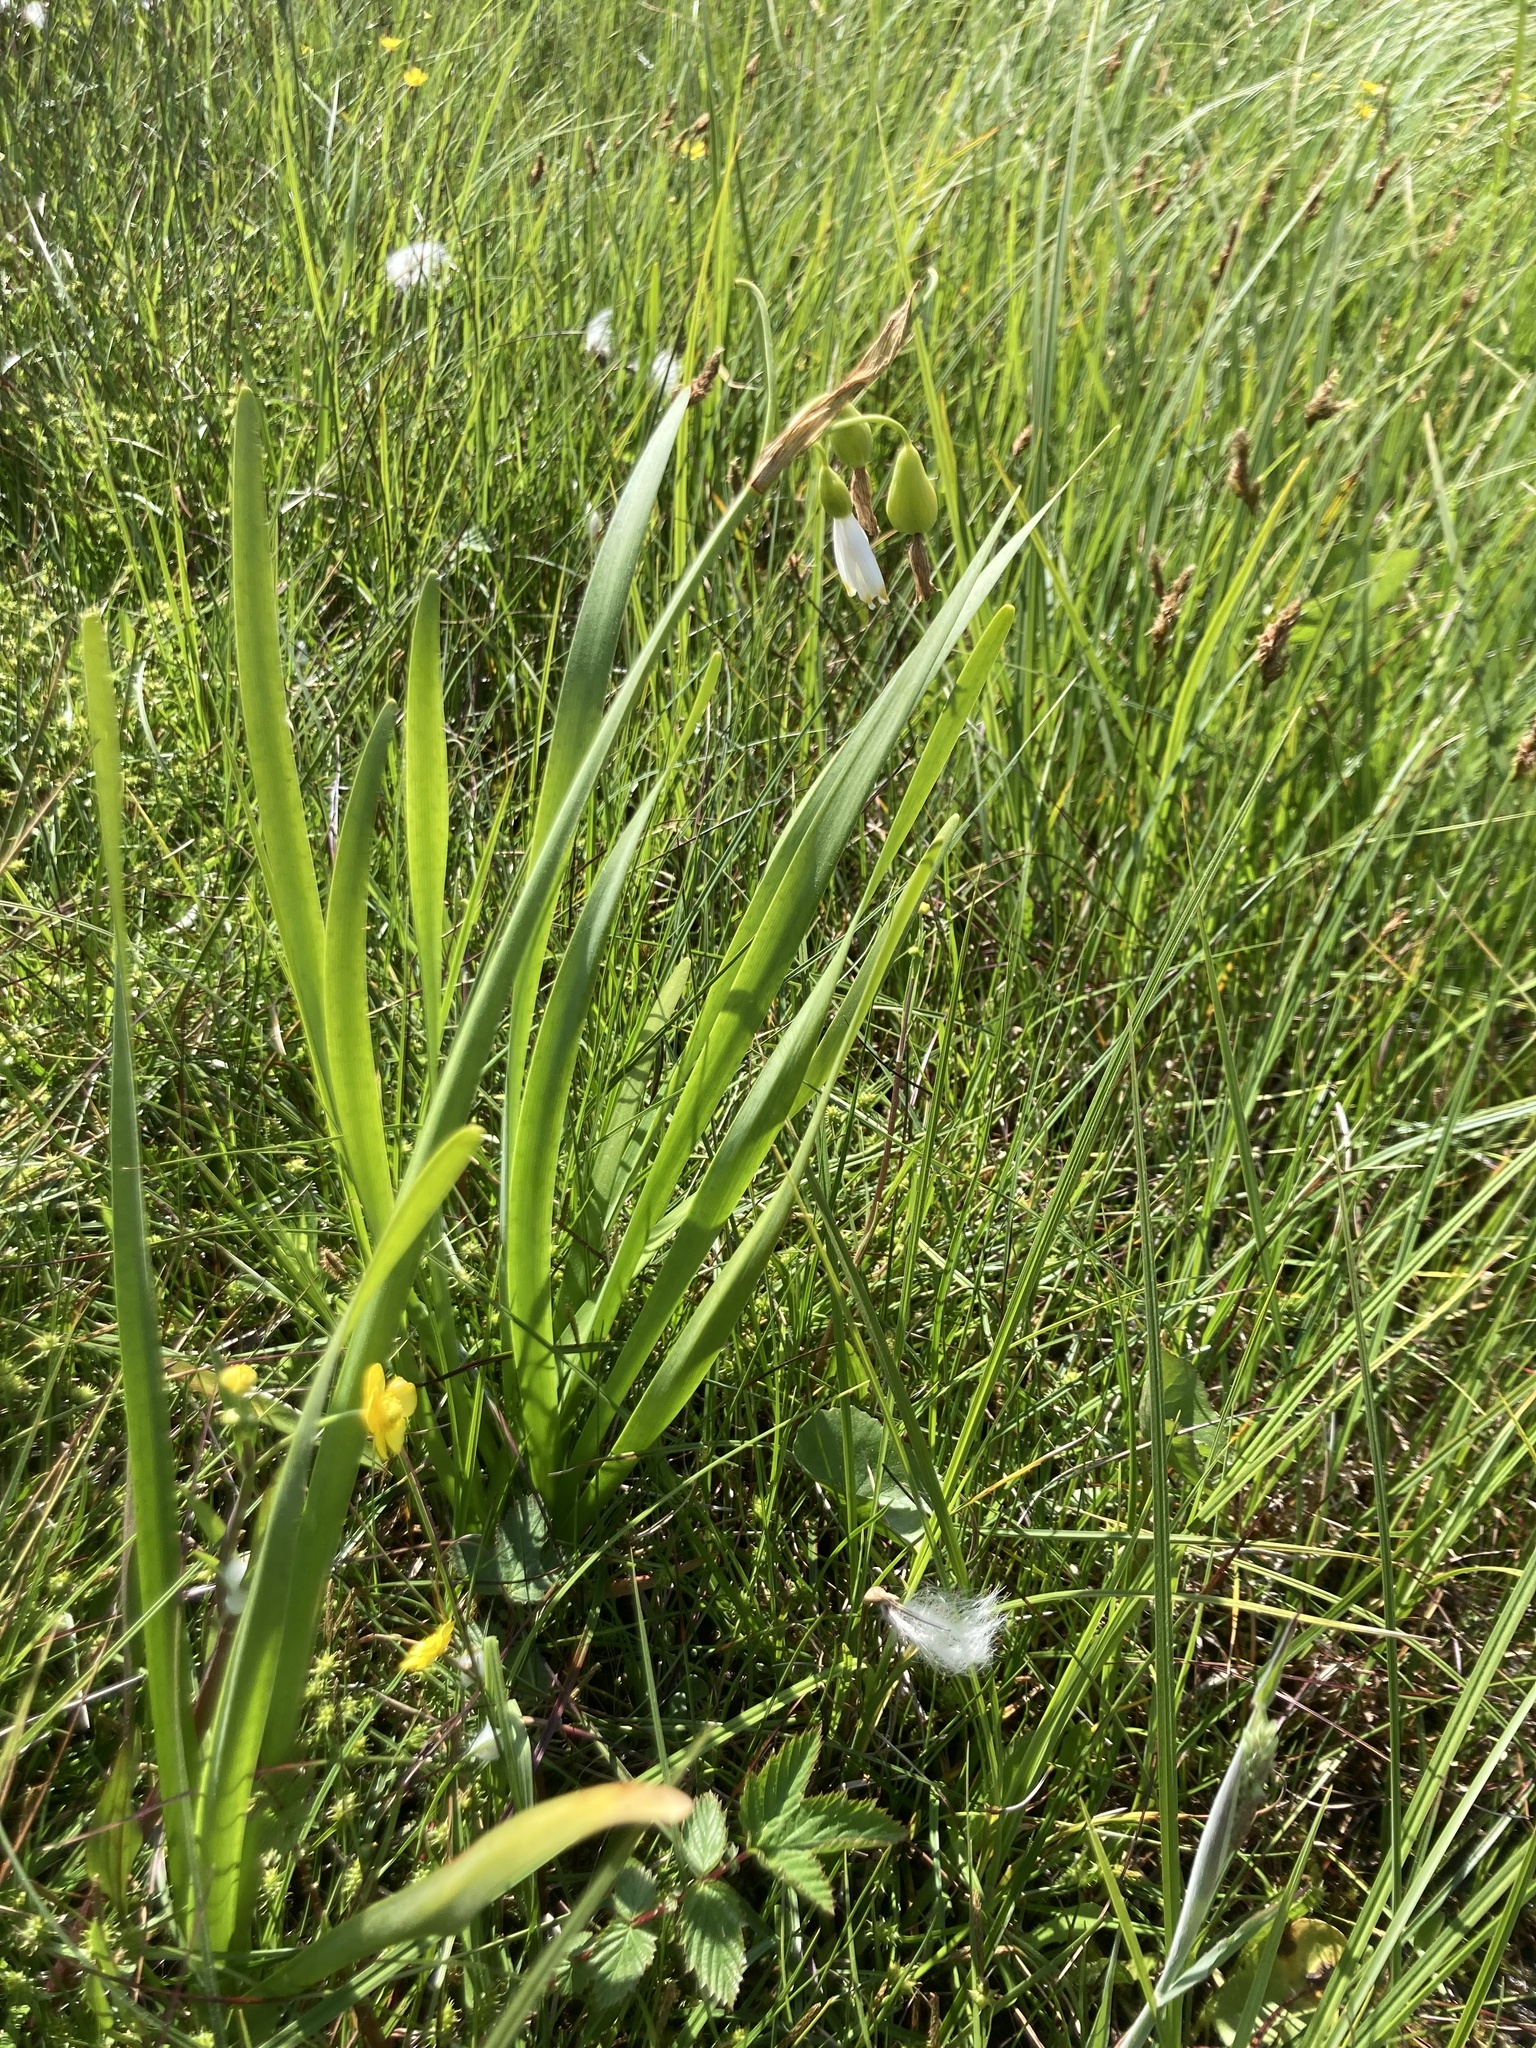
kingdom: Plantae
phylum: Tracheophyta
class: Liliopsida
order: Asparagales
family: Amaryllidaceae
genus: Leucojum
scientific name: Leucojum aestivum
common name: Summer snowflake
